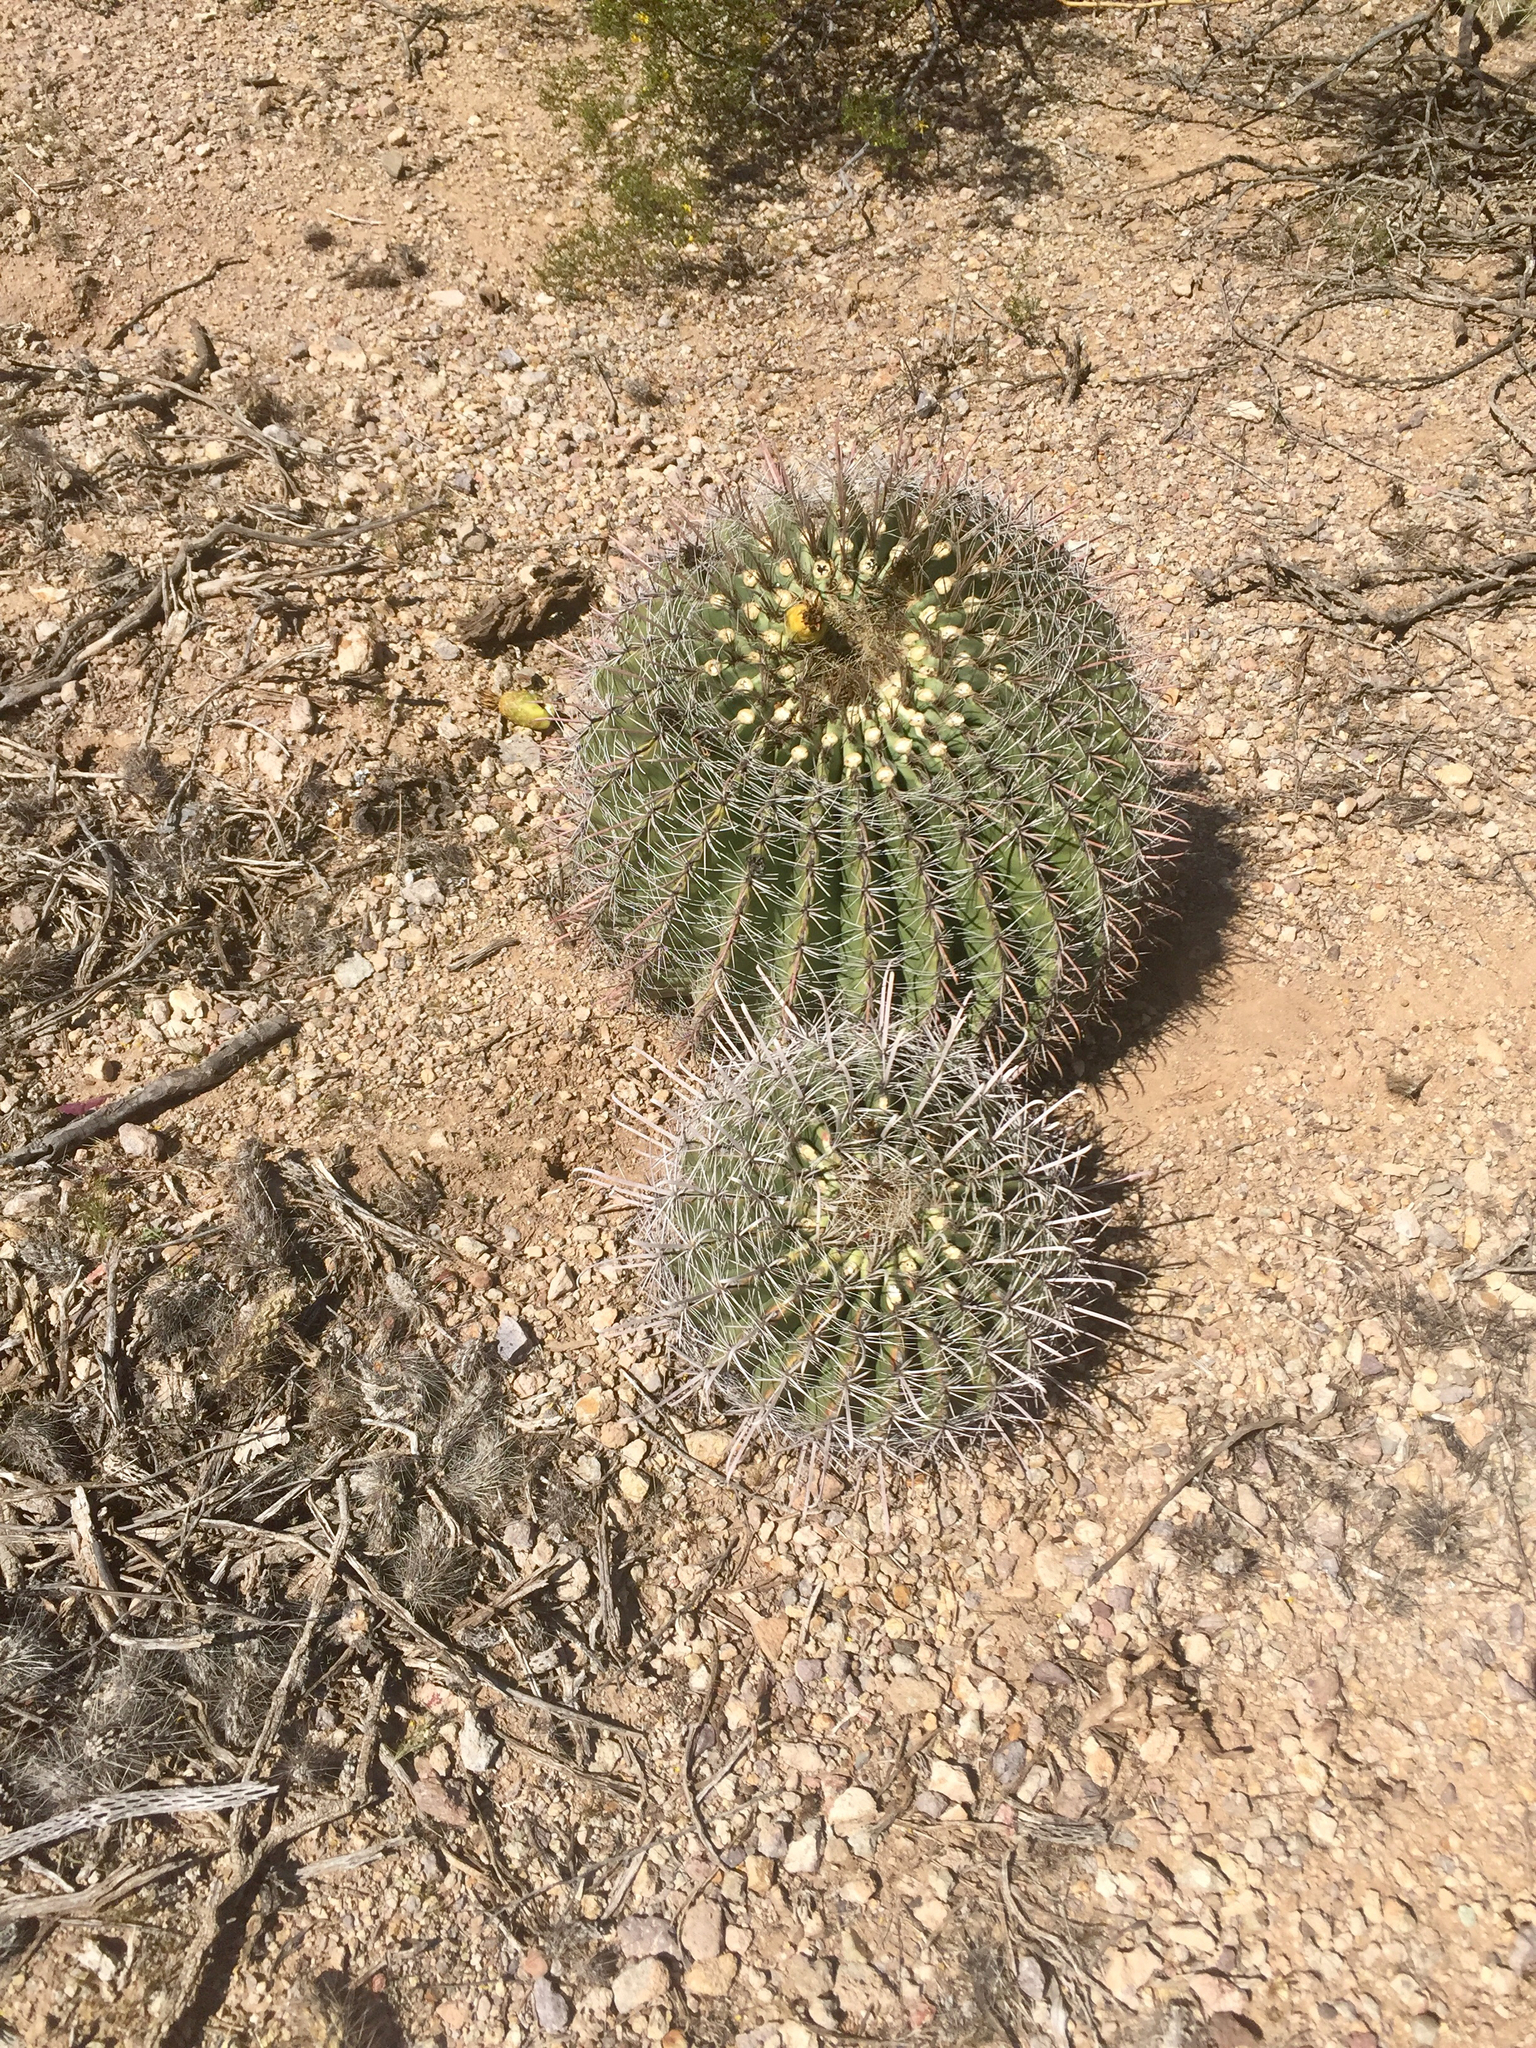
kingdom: Plantae
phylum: Tracheophyta
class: Magnoliopsida
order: Caryophyllales
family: Cactaceae
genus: Ferocactus
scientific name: Ferocactus wislizeni
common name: Candy barrel cactus
